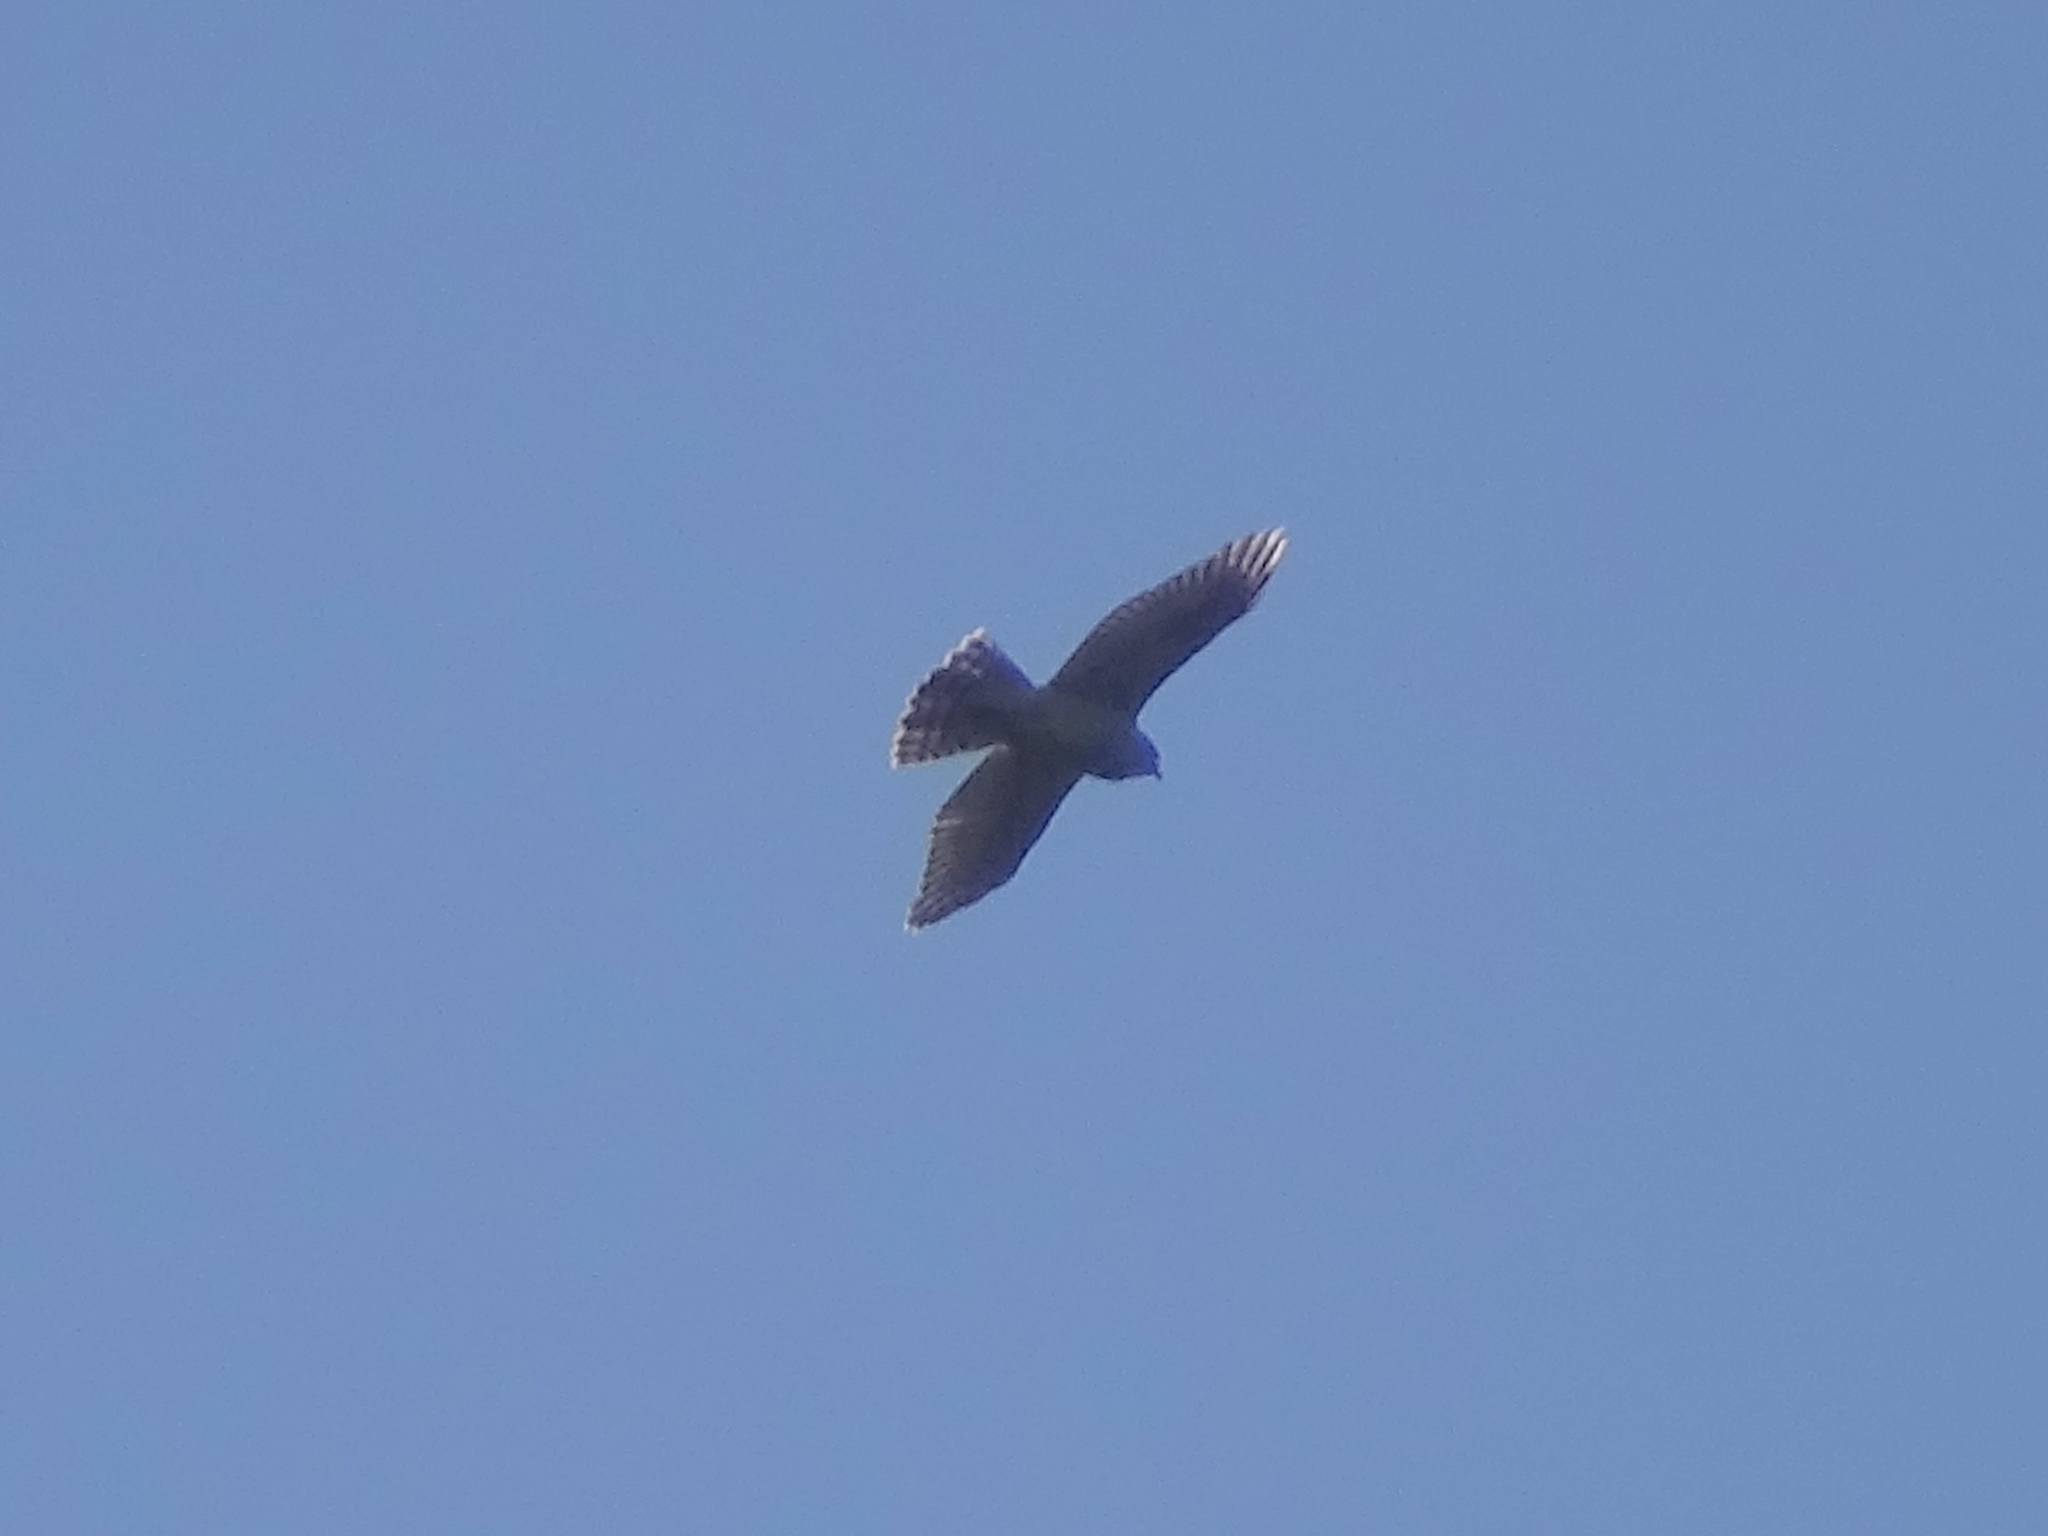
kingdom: Animalia
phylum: Chordata
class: Aves
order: Accipitriformes
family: Accipitridae
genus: Accipiter
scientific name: Accipiter gentilis
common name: Northern goshawk
